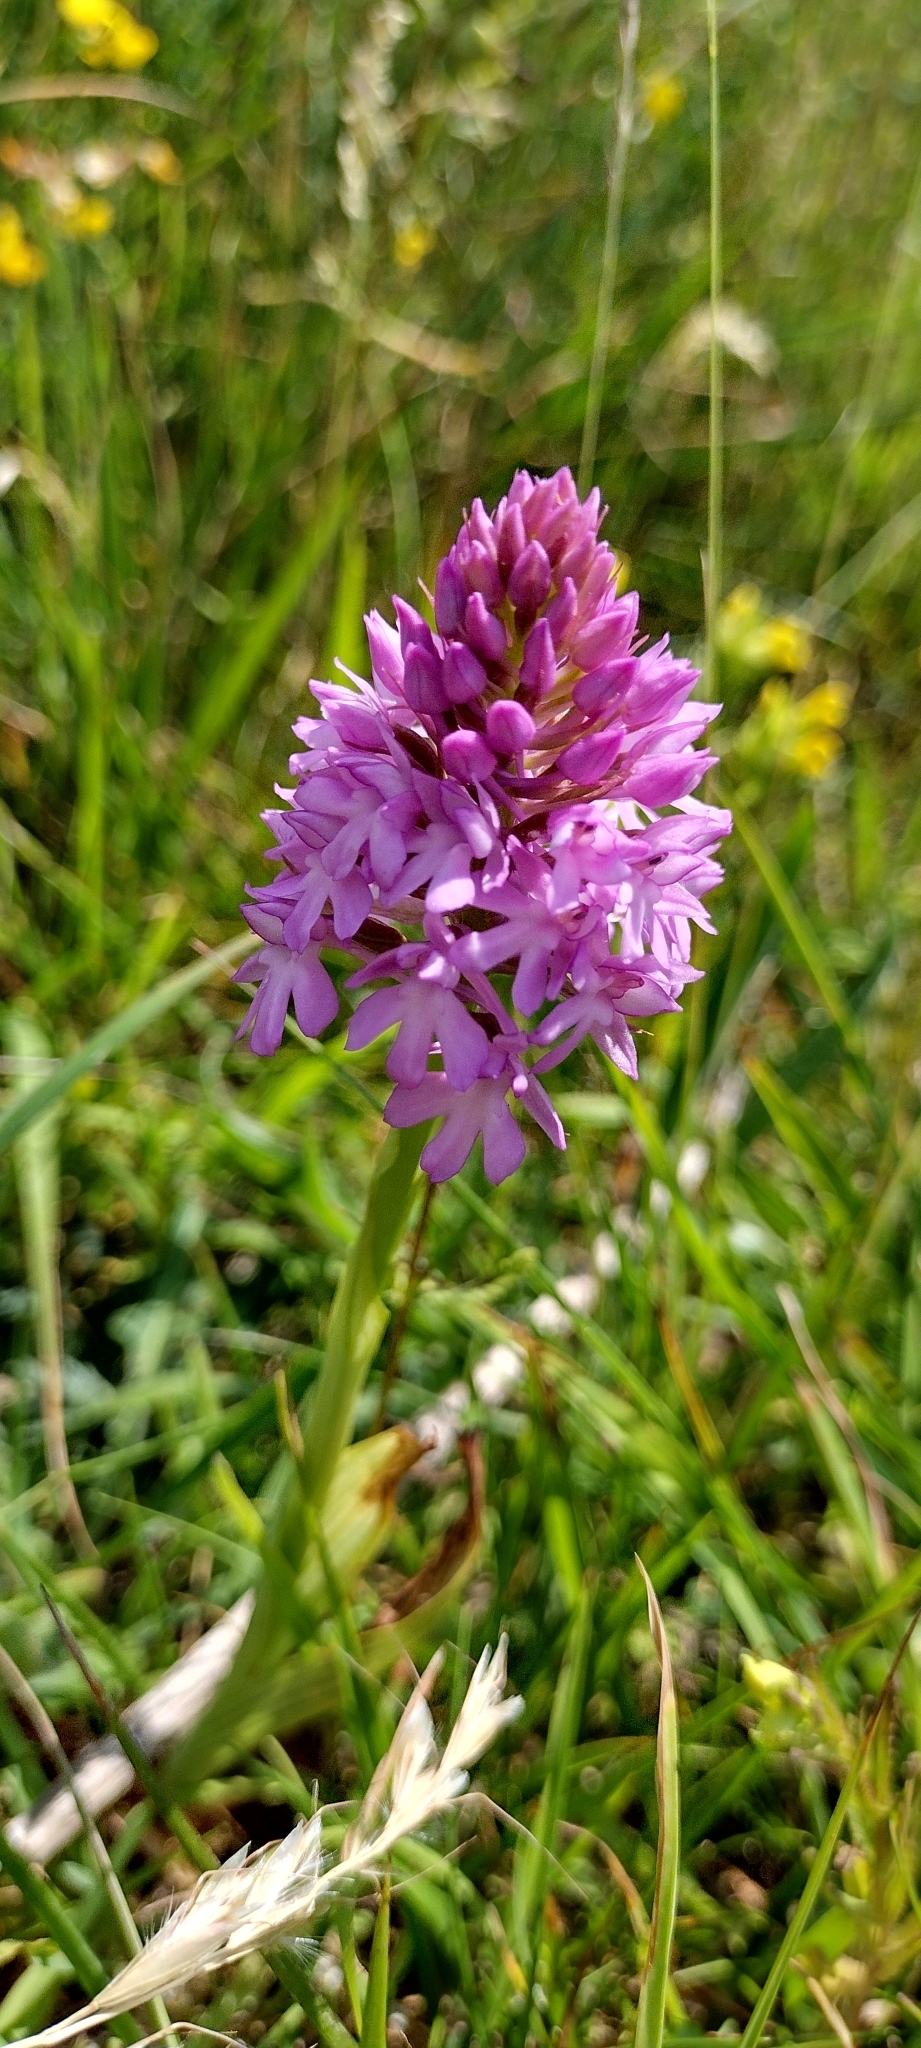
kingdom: Plantae
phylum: Tracheophyta
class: Liliopsida
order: Asparagales
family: Orchidaceae
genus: Anacamptis
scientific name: Anacamptis pyramidalis
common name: Pyramidal orchid
